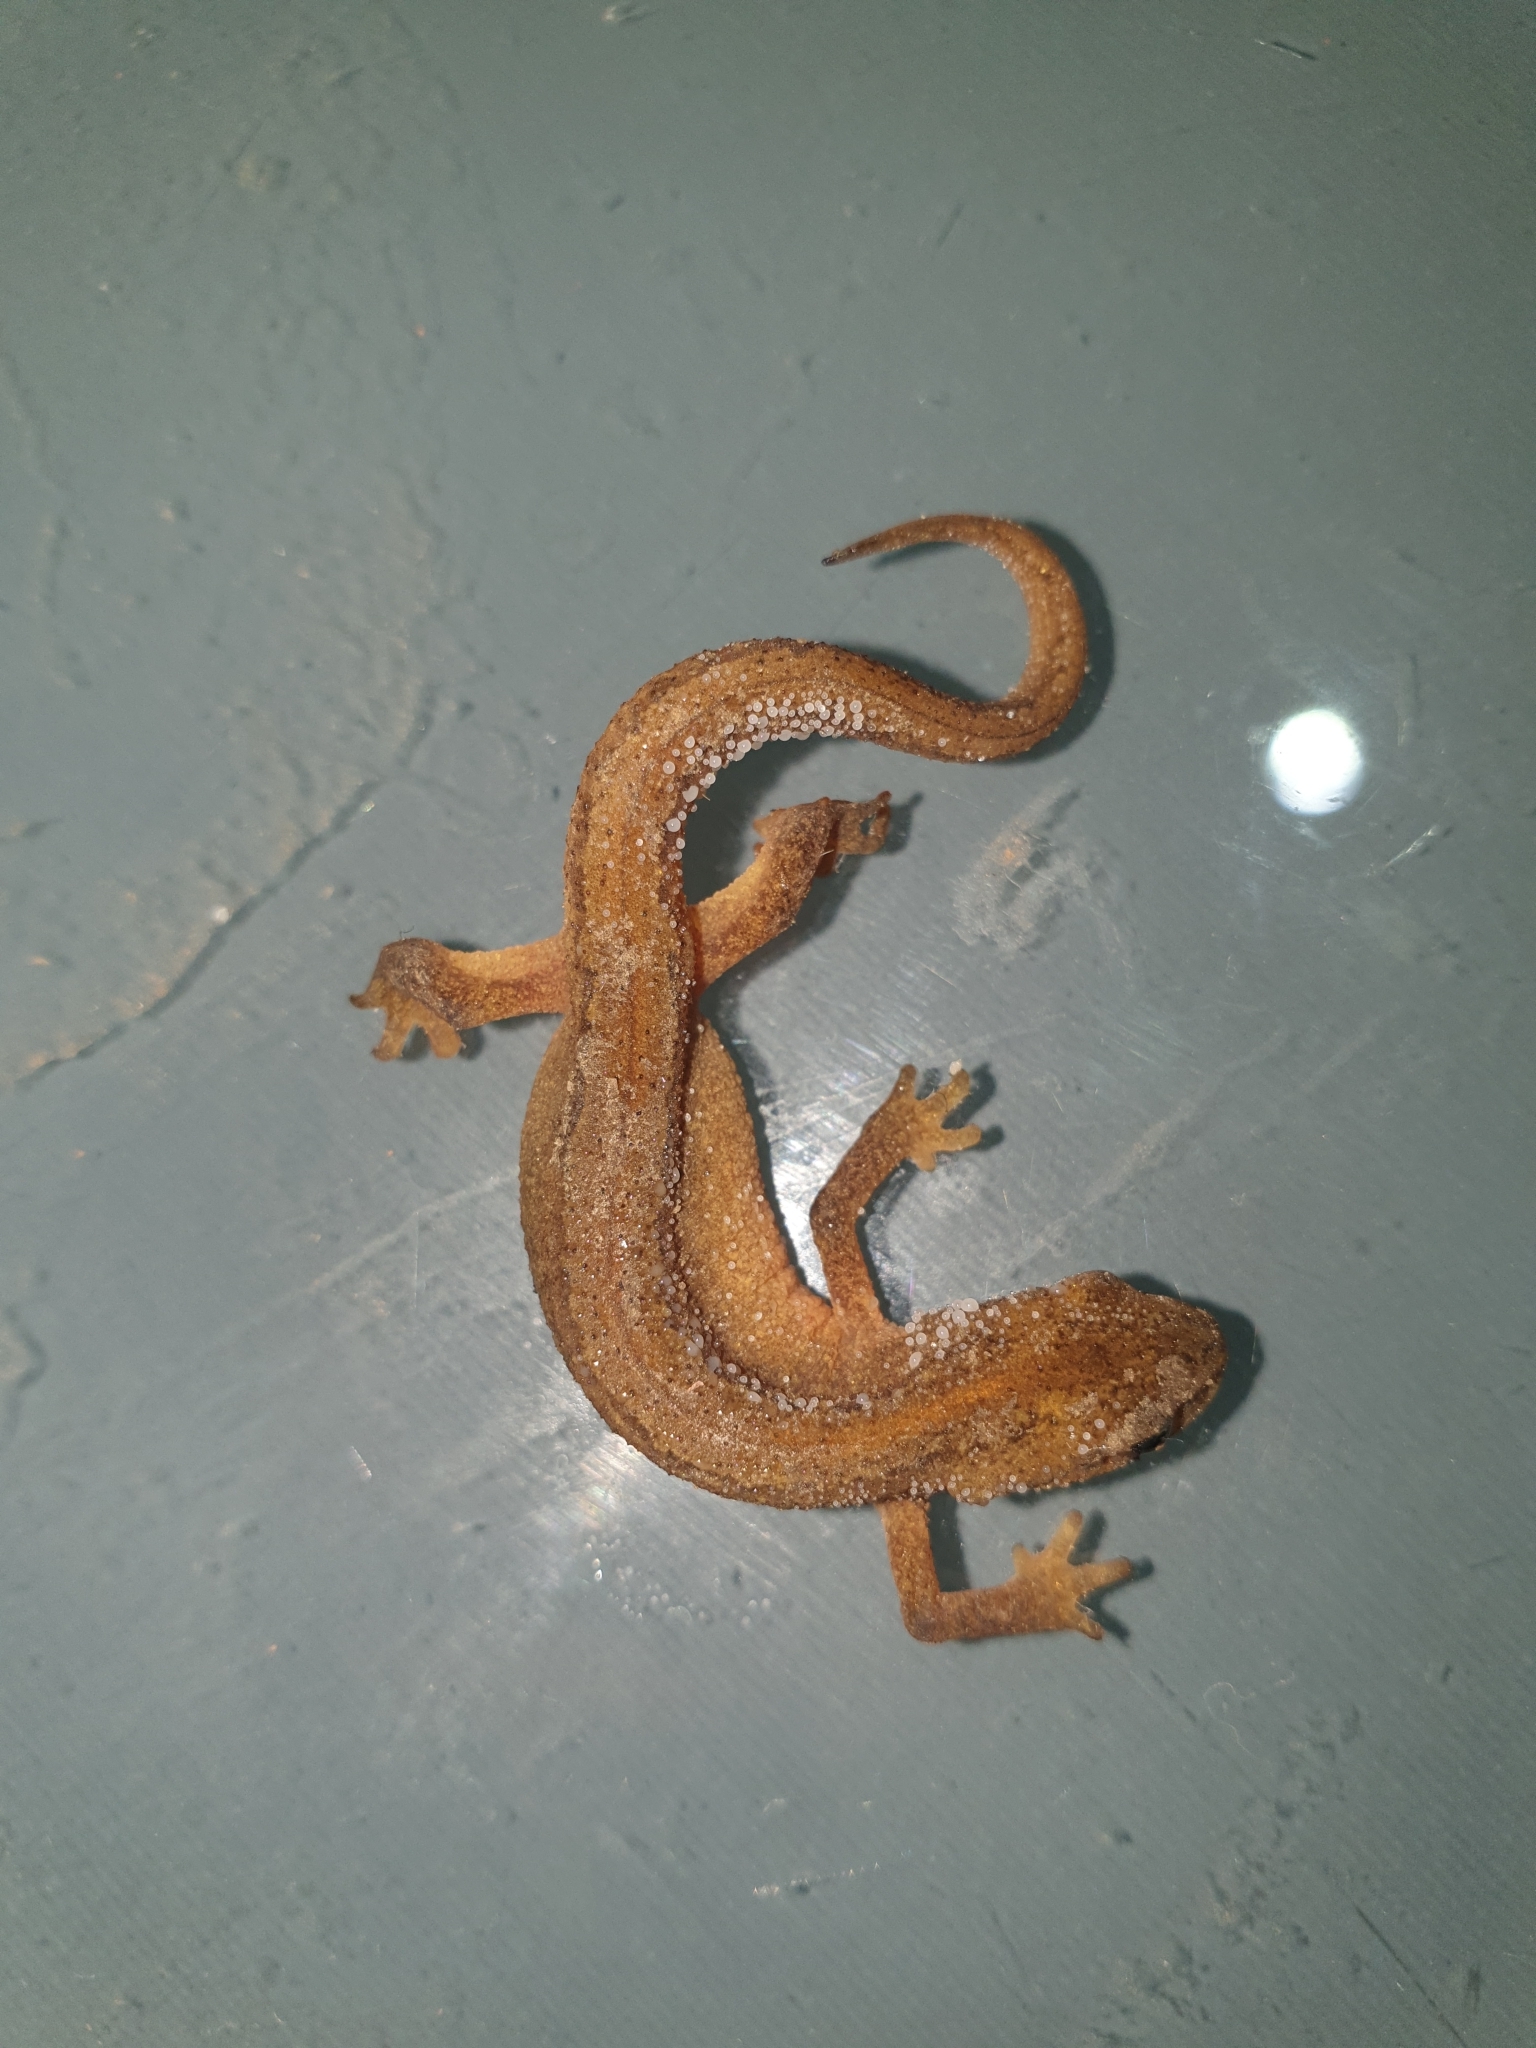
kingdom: Animalia
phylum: Chordata
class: Amphibia
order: Caudata
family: Salamandridae
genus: Lissotriton
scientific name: Lissotriton vulgaris
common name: Smooth newt
